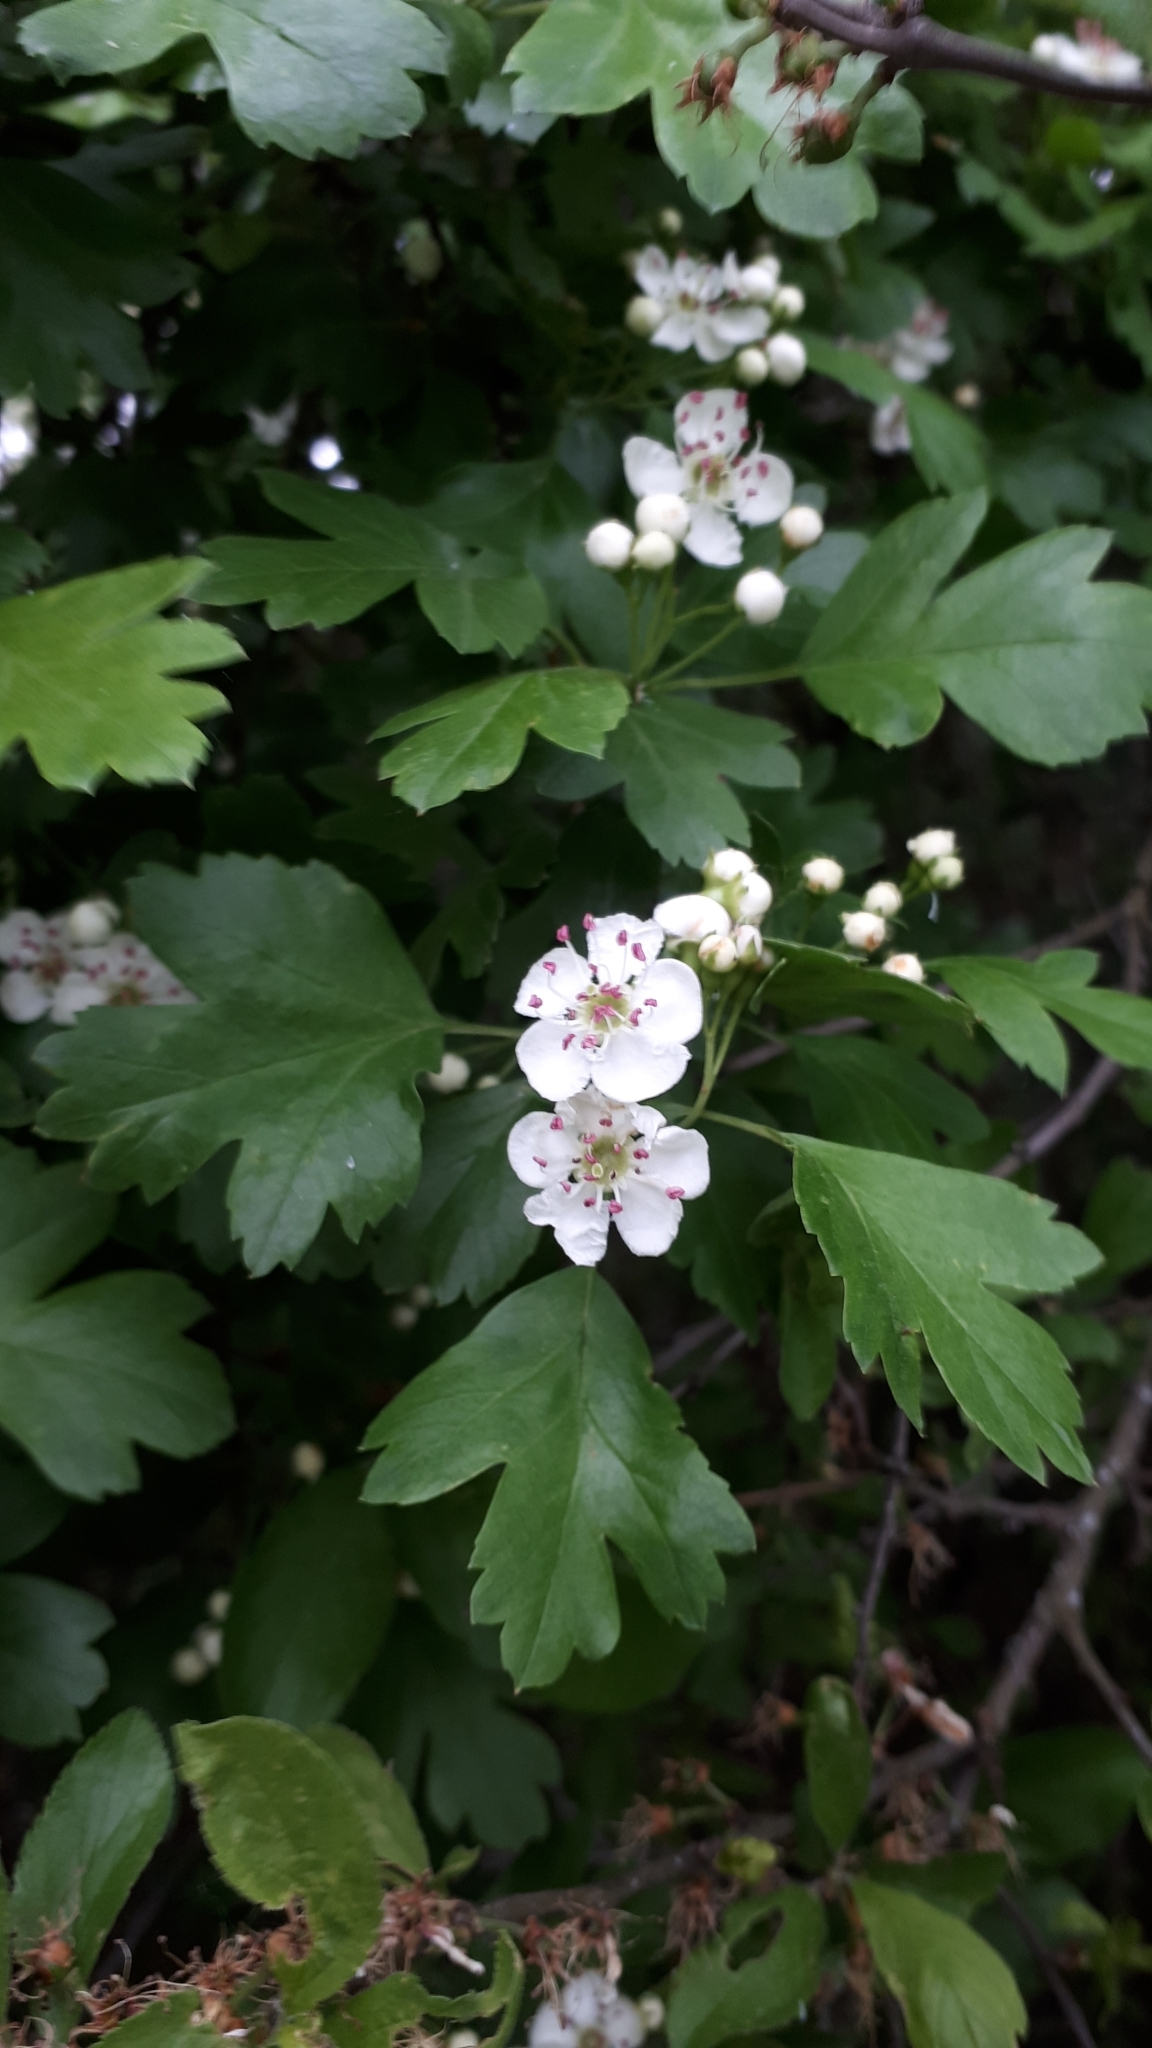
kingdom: Plantae
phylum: Tracheophyta
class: Magnoliopsida
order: Rosales
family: Rosaceae
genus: Crataegus
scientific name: Crataegus monogyna
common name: Hawthorn
